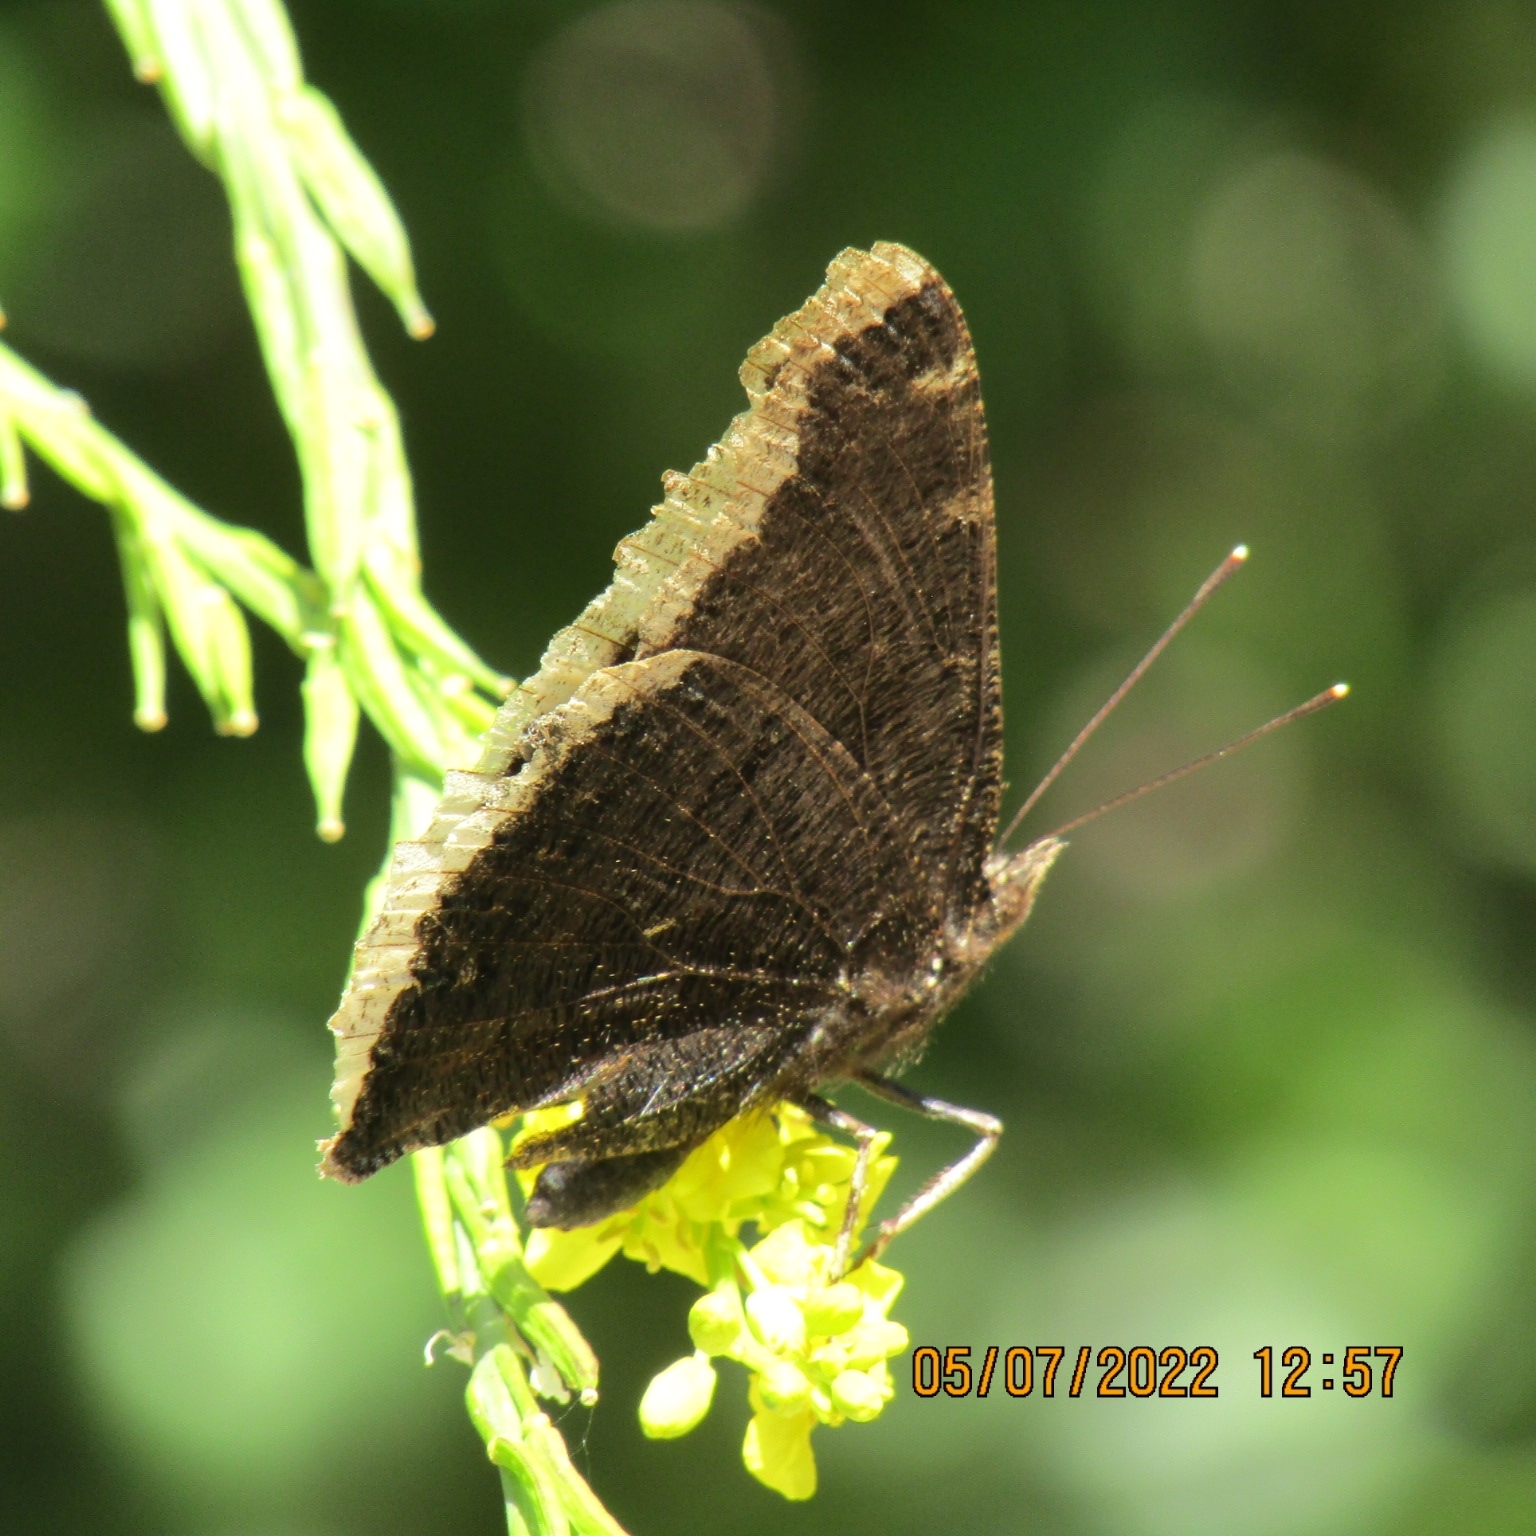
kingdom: Animalia
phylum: Arthropoda
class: Insecta
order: Lepidoptera
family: Nymphalidae
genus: Nymphalis
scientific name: Nymphalis antiopa
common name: Camberwell beauty
